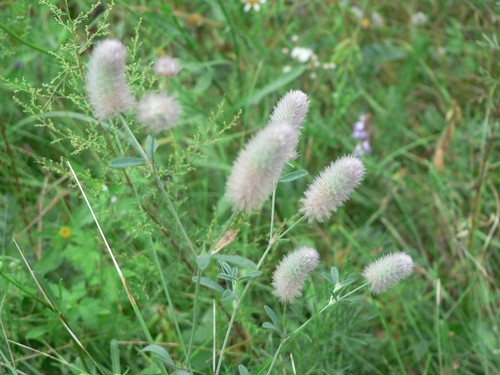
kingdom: Plantae
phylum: Tracheophyta
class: Magnoliopsida
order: Fabales
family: Fabaceae
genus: Trifolium
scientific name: Trifolium arvense
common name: Hare's-foot clover
